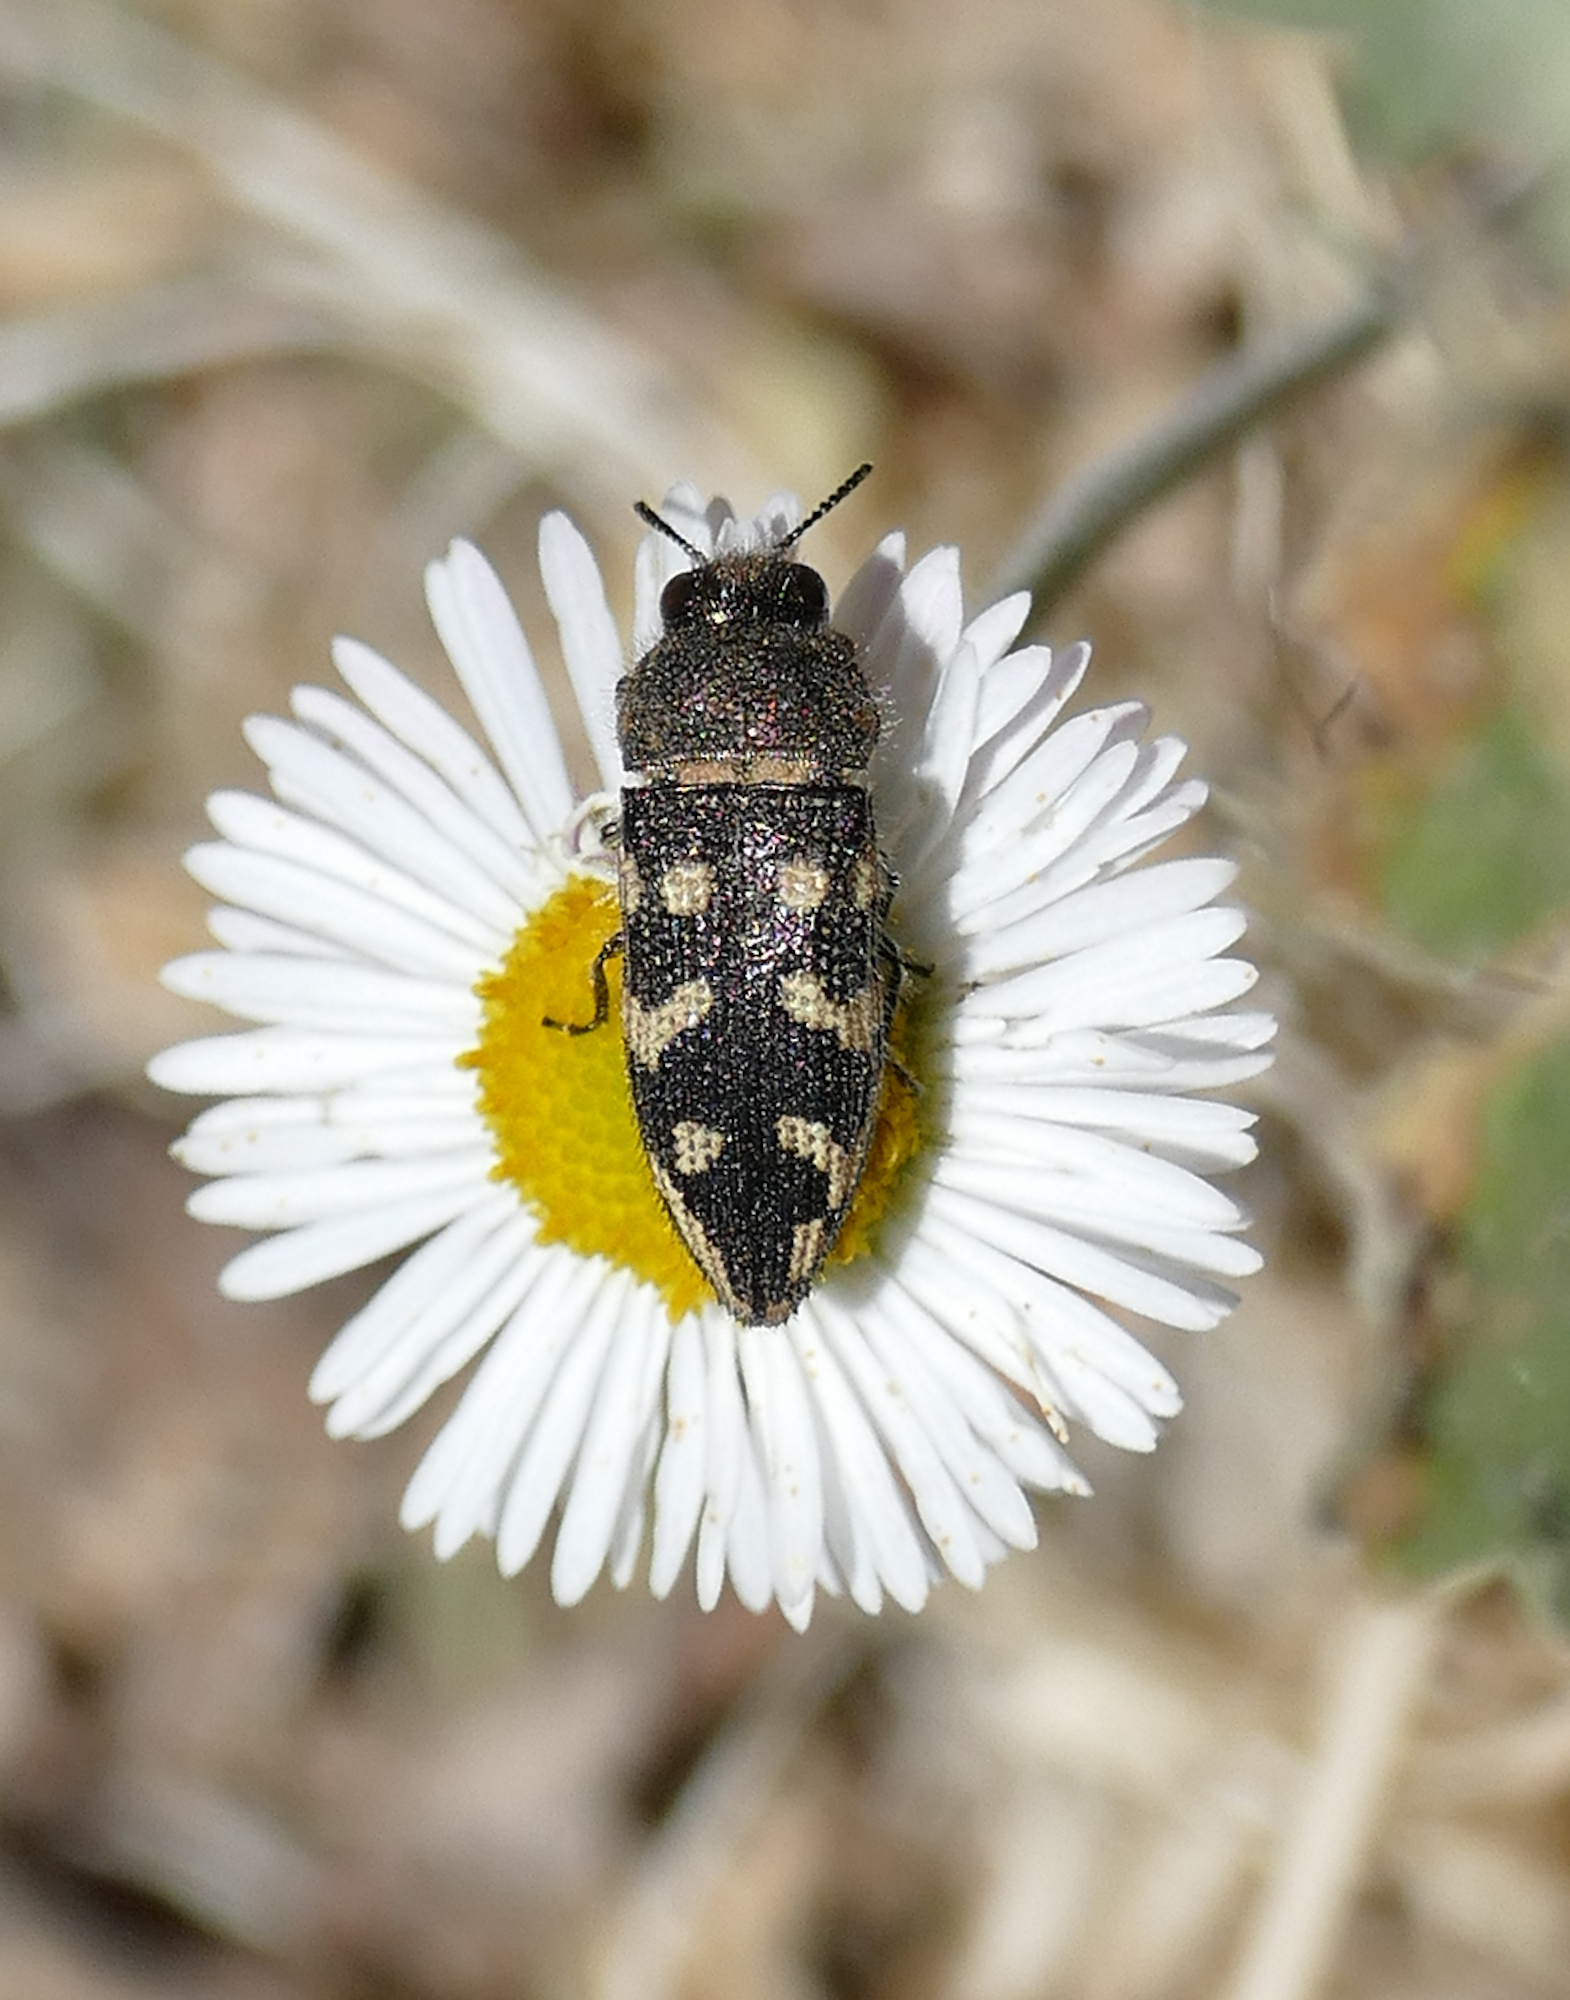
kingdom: Animalia
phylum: Arthropoda
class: Insecta
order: Coleoptera
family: Buprestidae
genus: Acmaeodera
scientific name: Acmaeodera bowditchi
